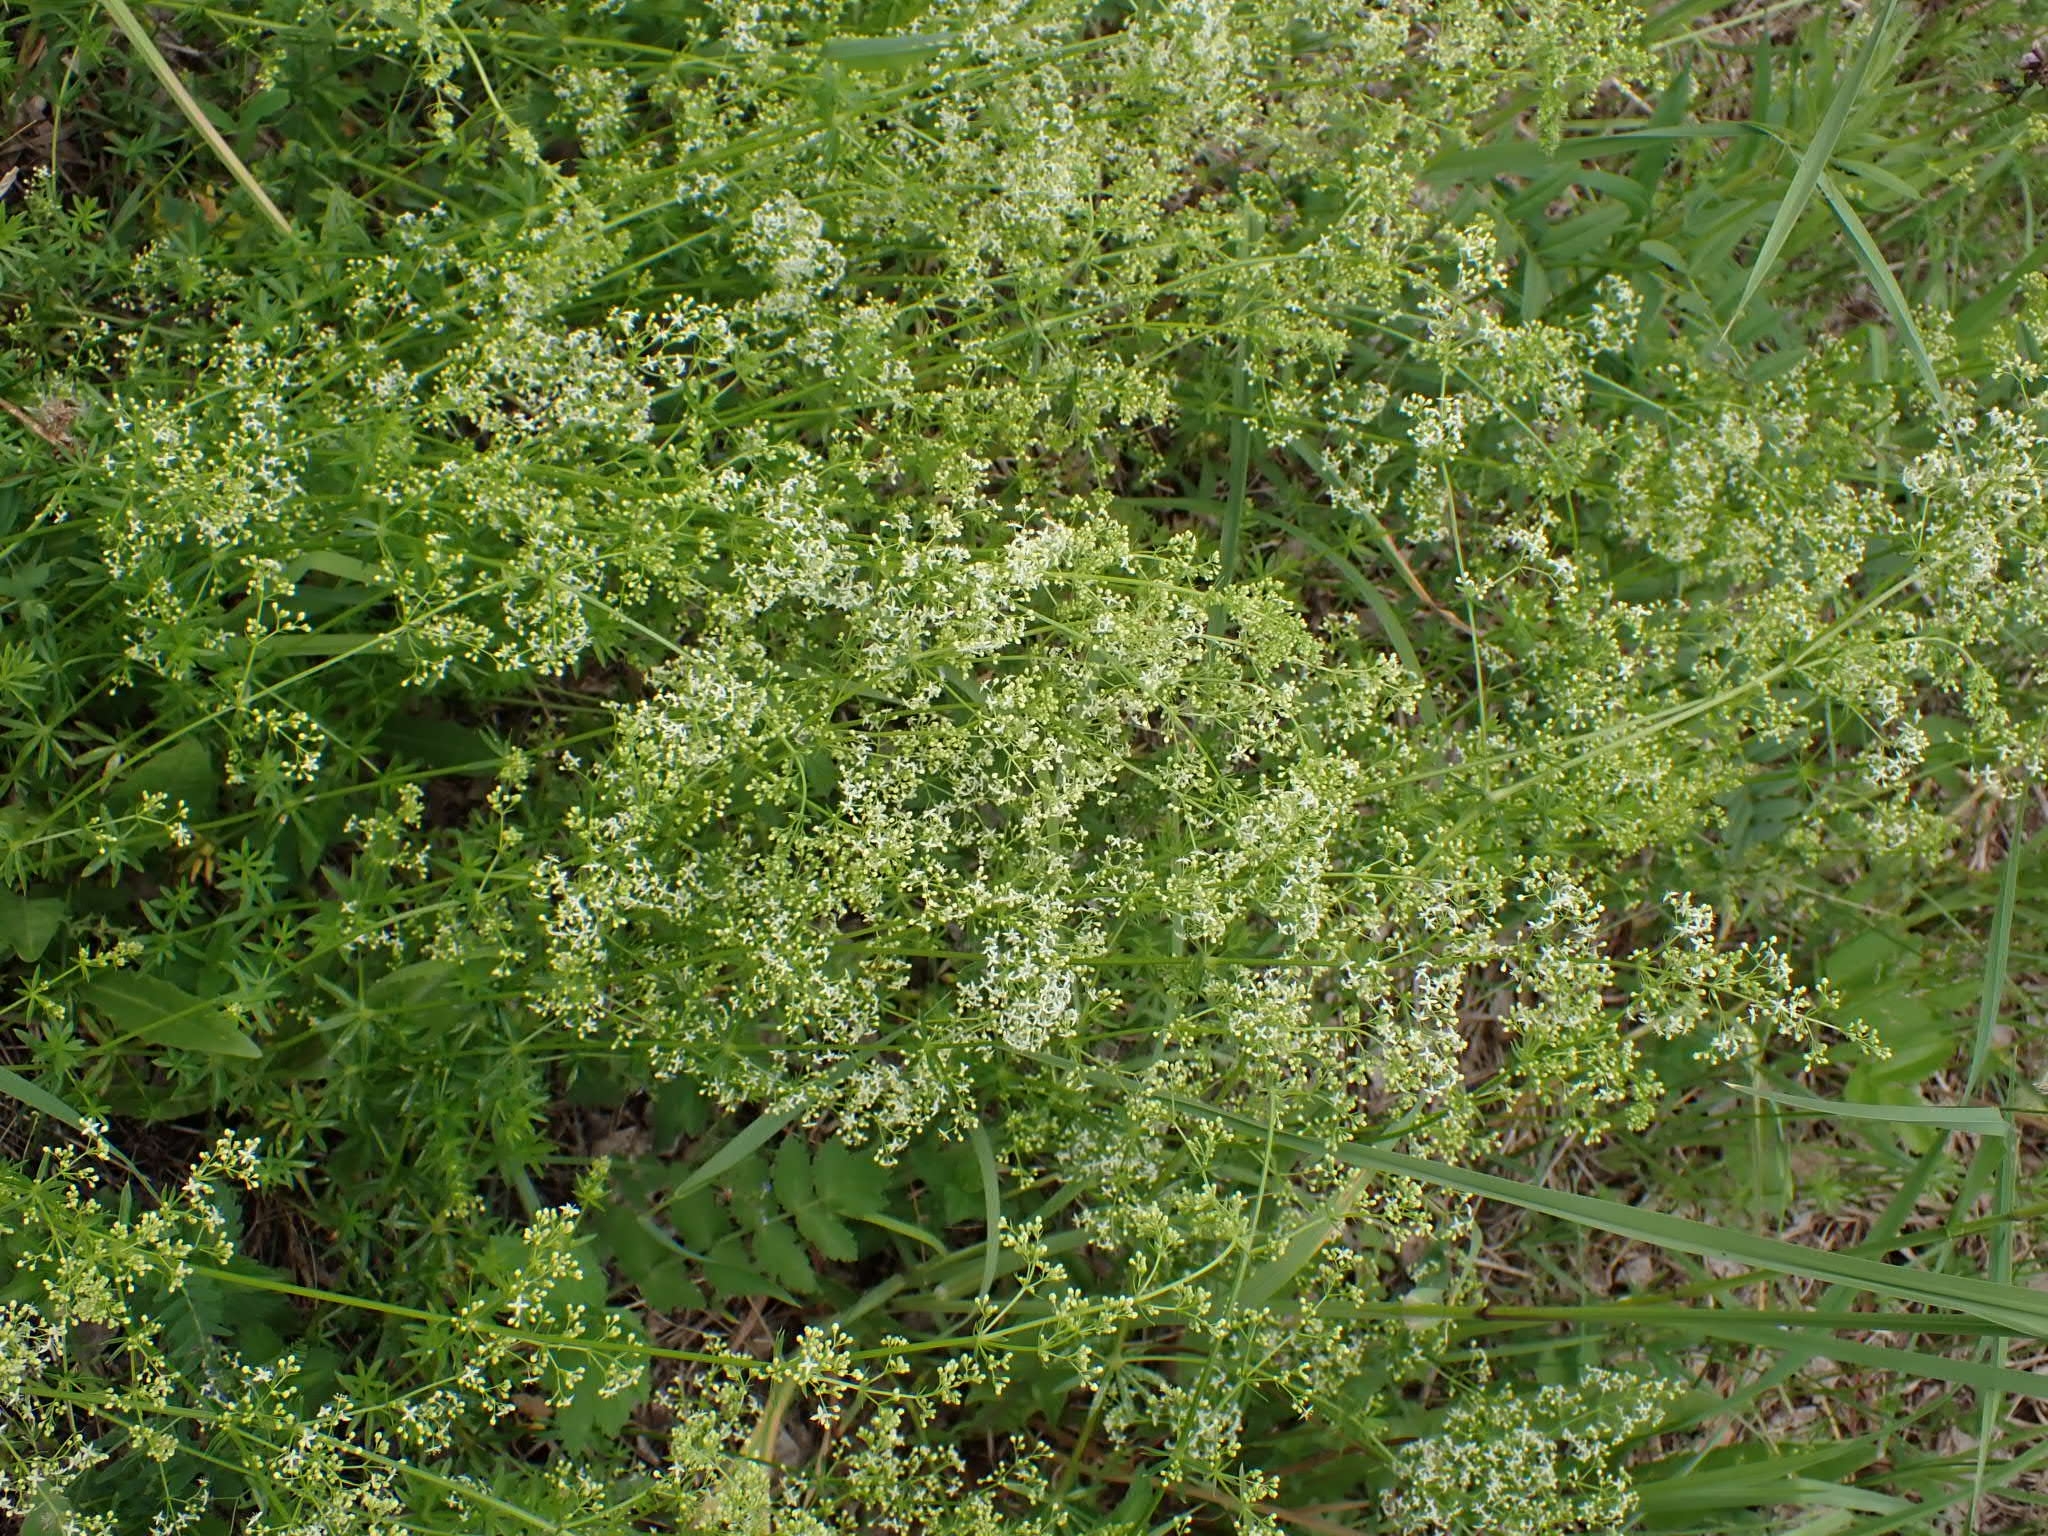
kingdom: Plantae
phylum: Tracheophyta
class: Magnoliopsida
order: Gentianales
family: Rubiaceae
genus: Galium
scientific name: Galium mollugo
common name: Hedge bedstraw
